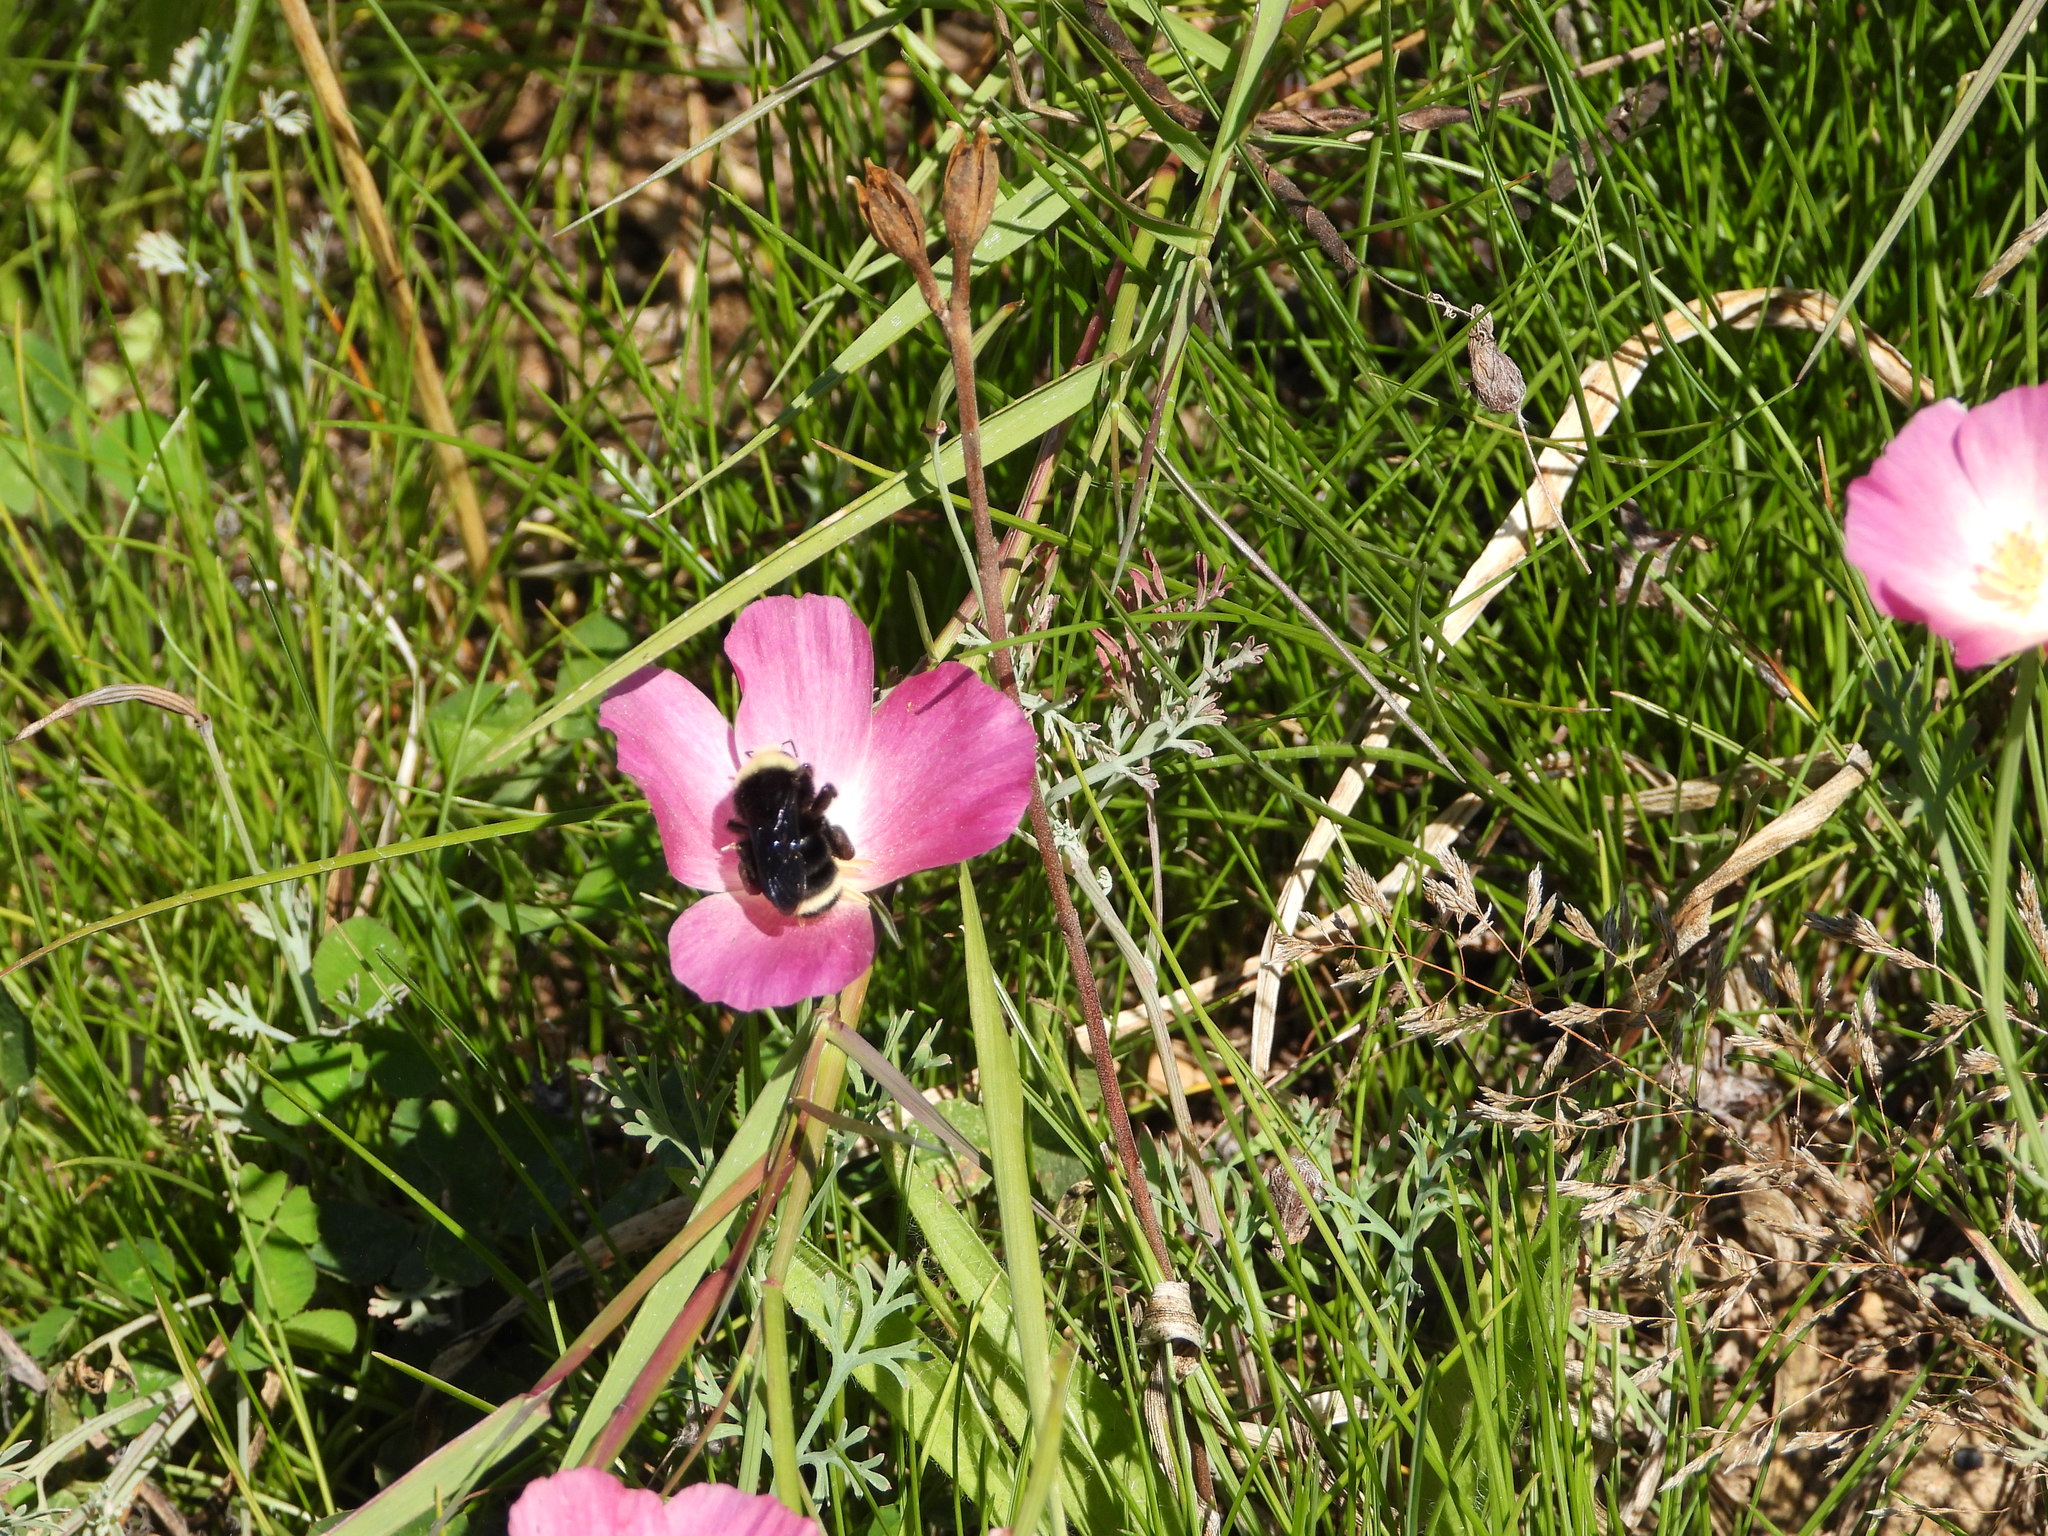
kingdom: Animalia
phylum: Arthropoda
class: Insecta
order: Hymenoptera
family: Apidae
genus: Pyrobombus
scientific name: Pyrobombus
